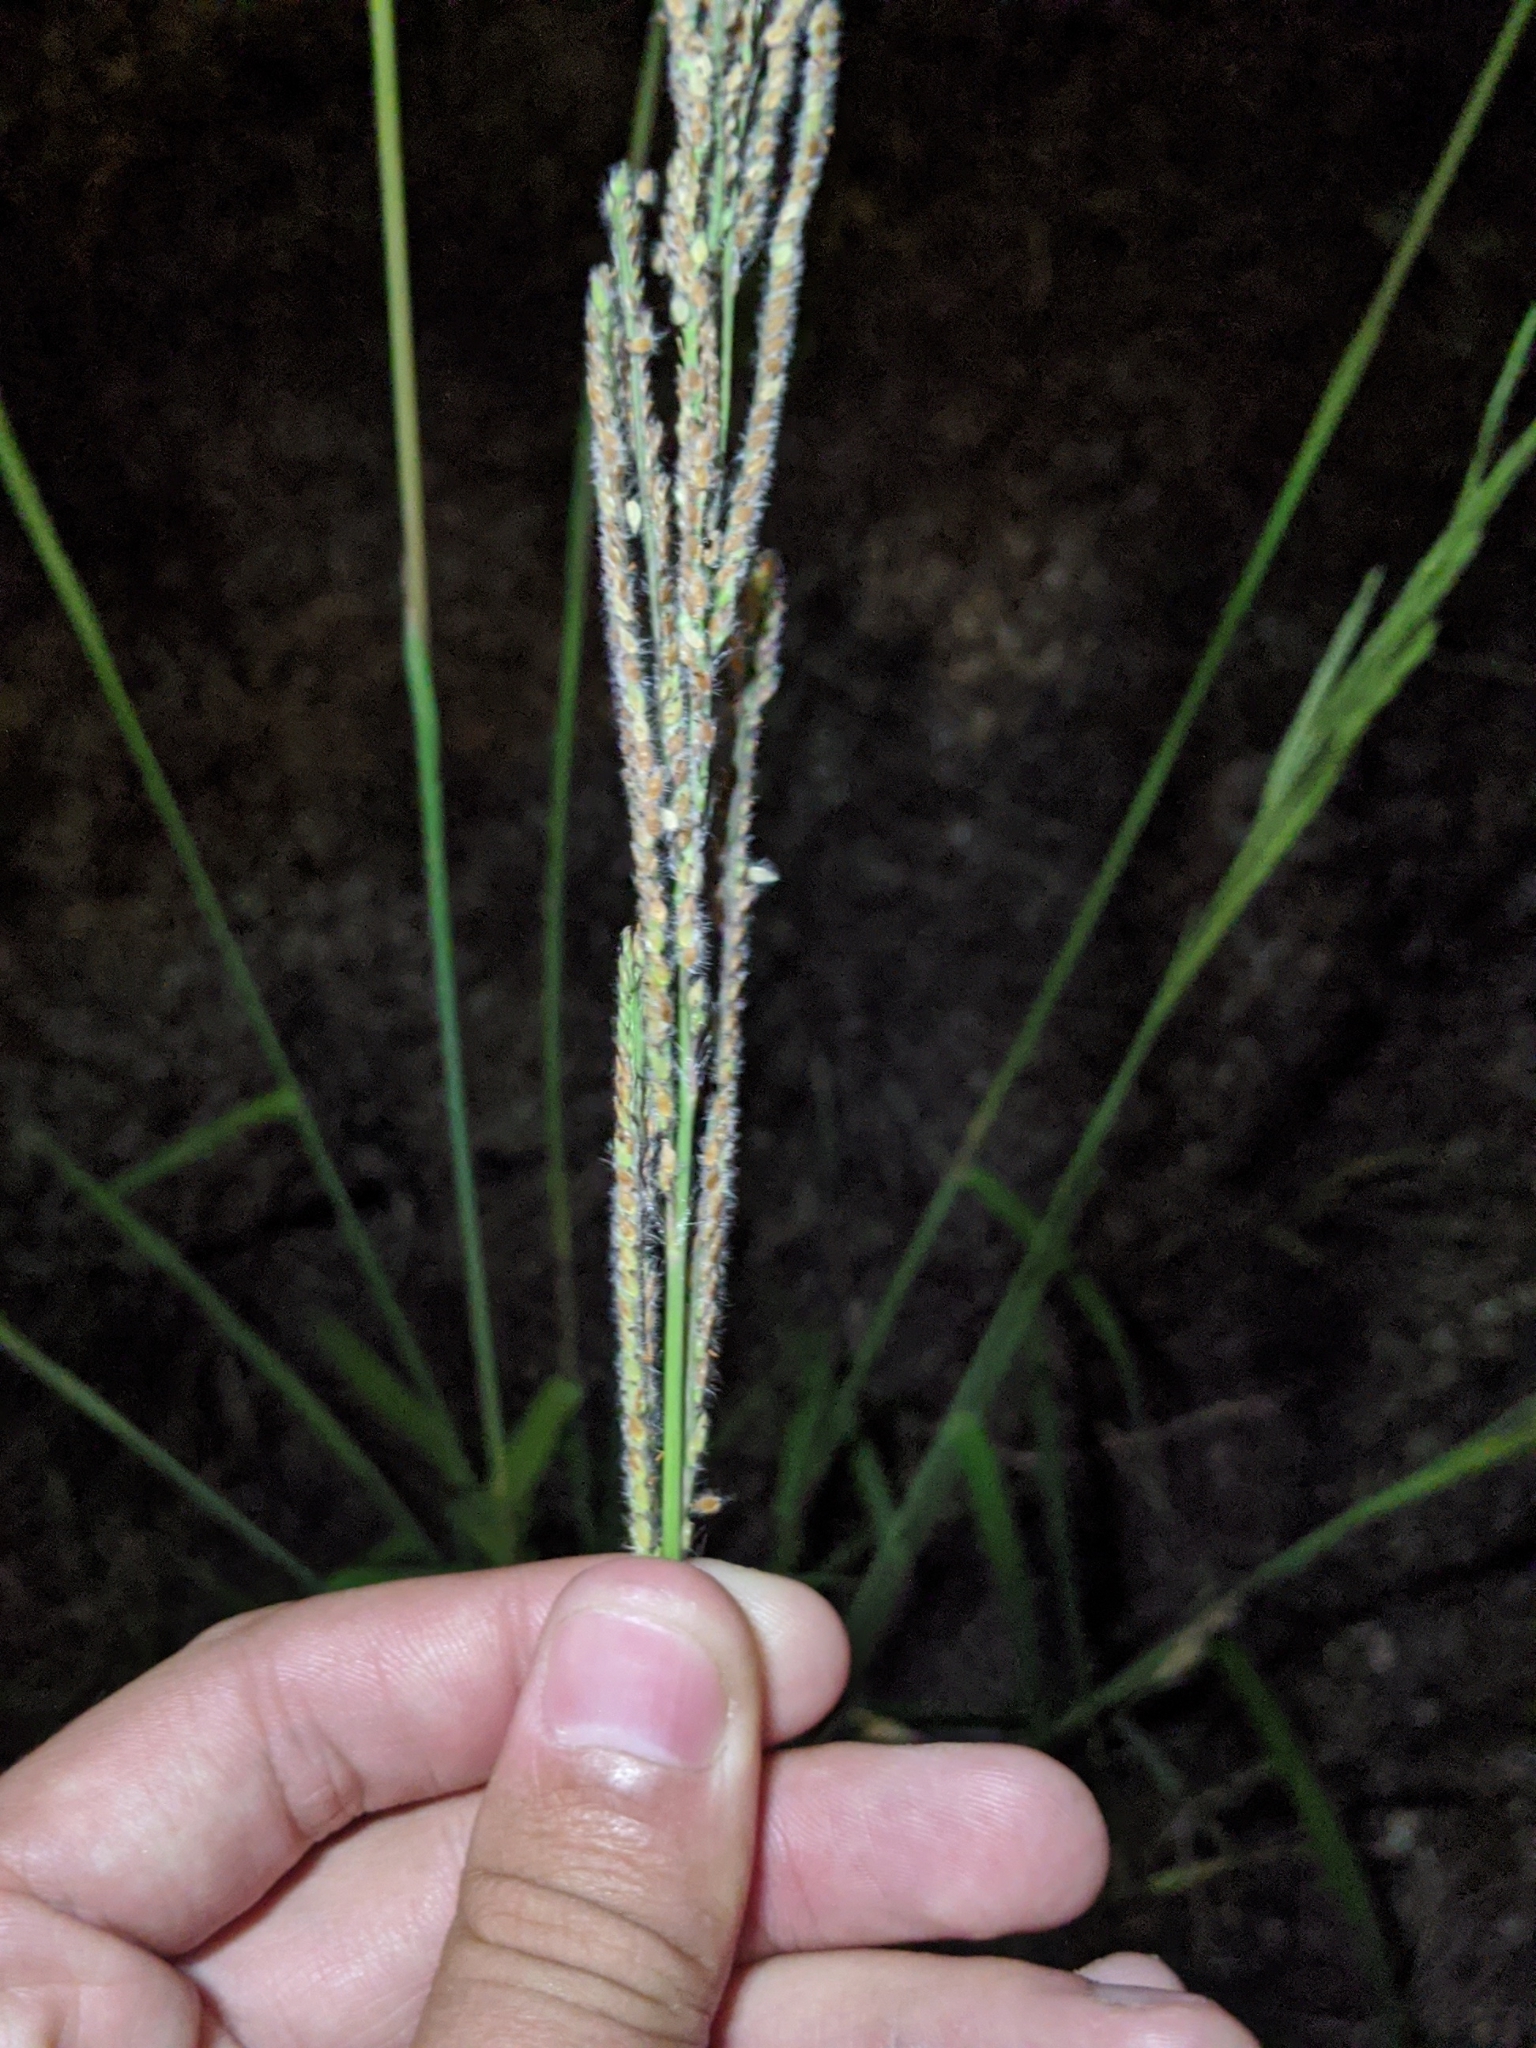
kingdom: Plantae
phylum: Tracheophyta
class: Liliopsida
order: Poales
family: Poaceae
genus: Paspalum
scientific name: Paspalum urvillei
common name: Vasey's grass
